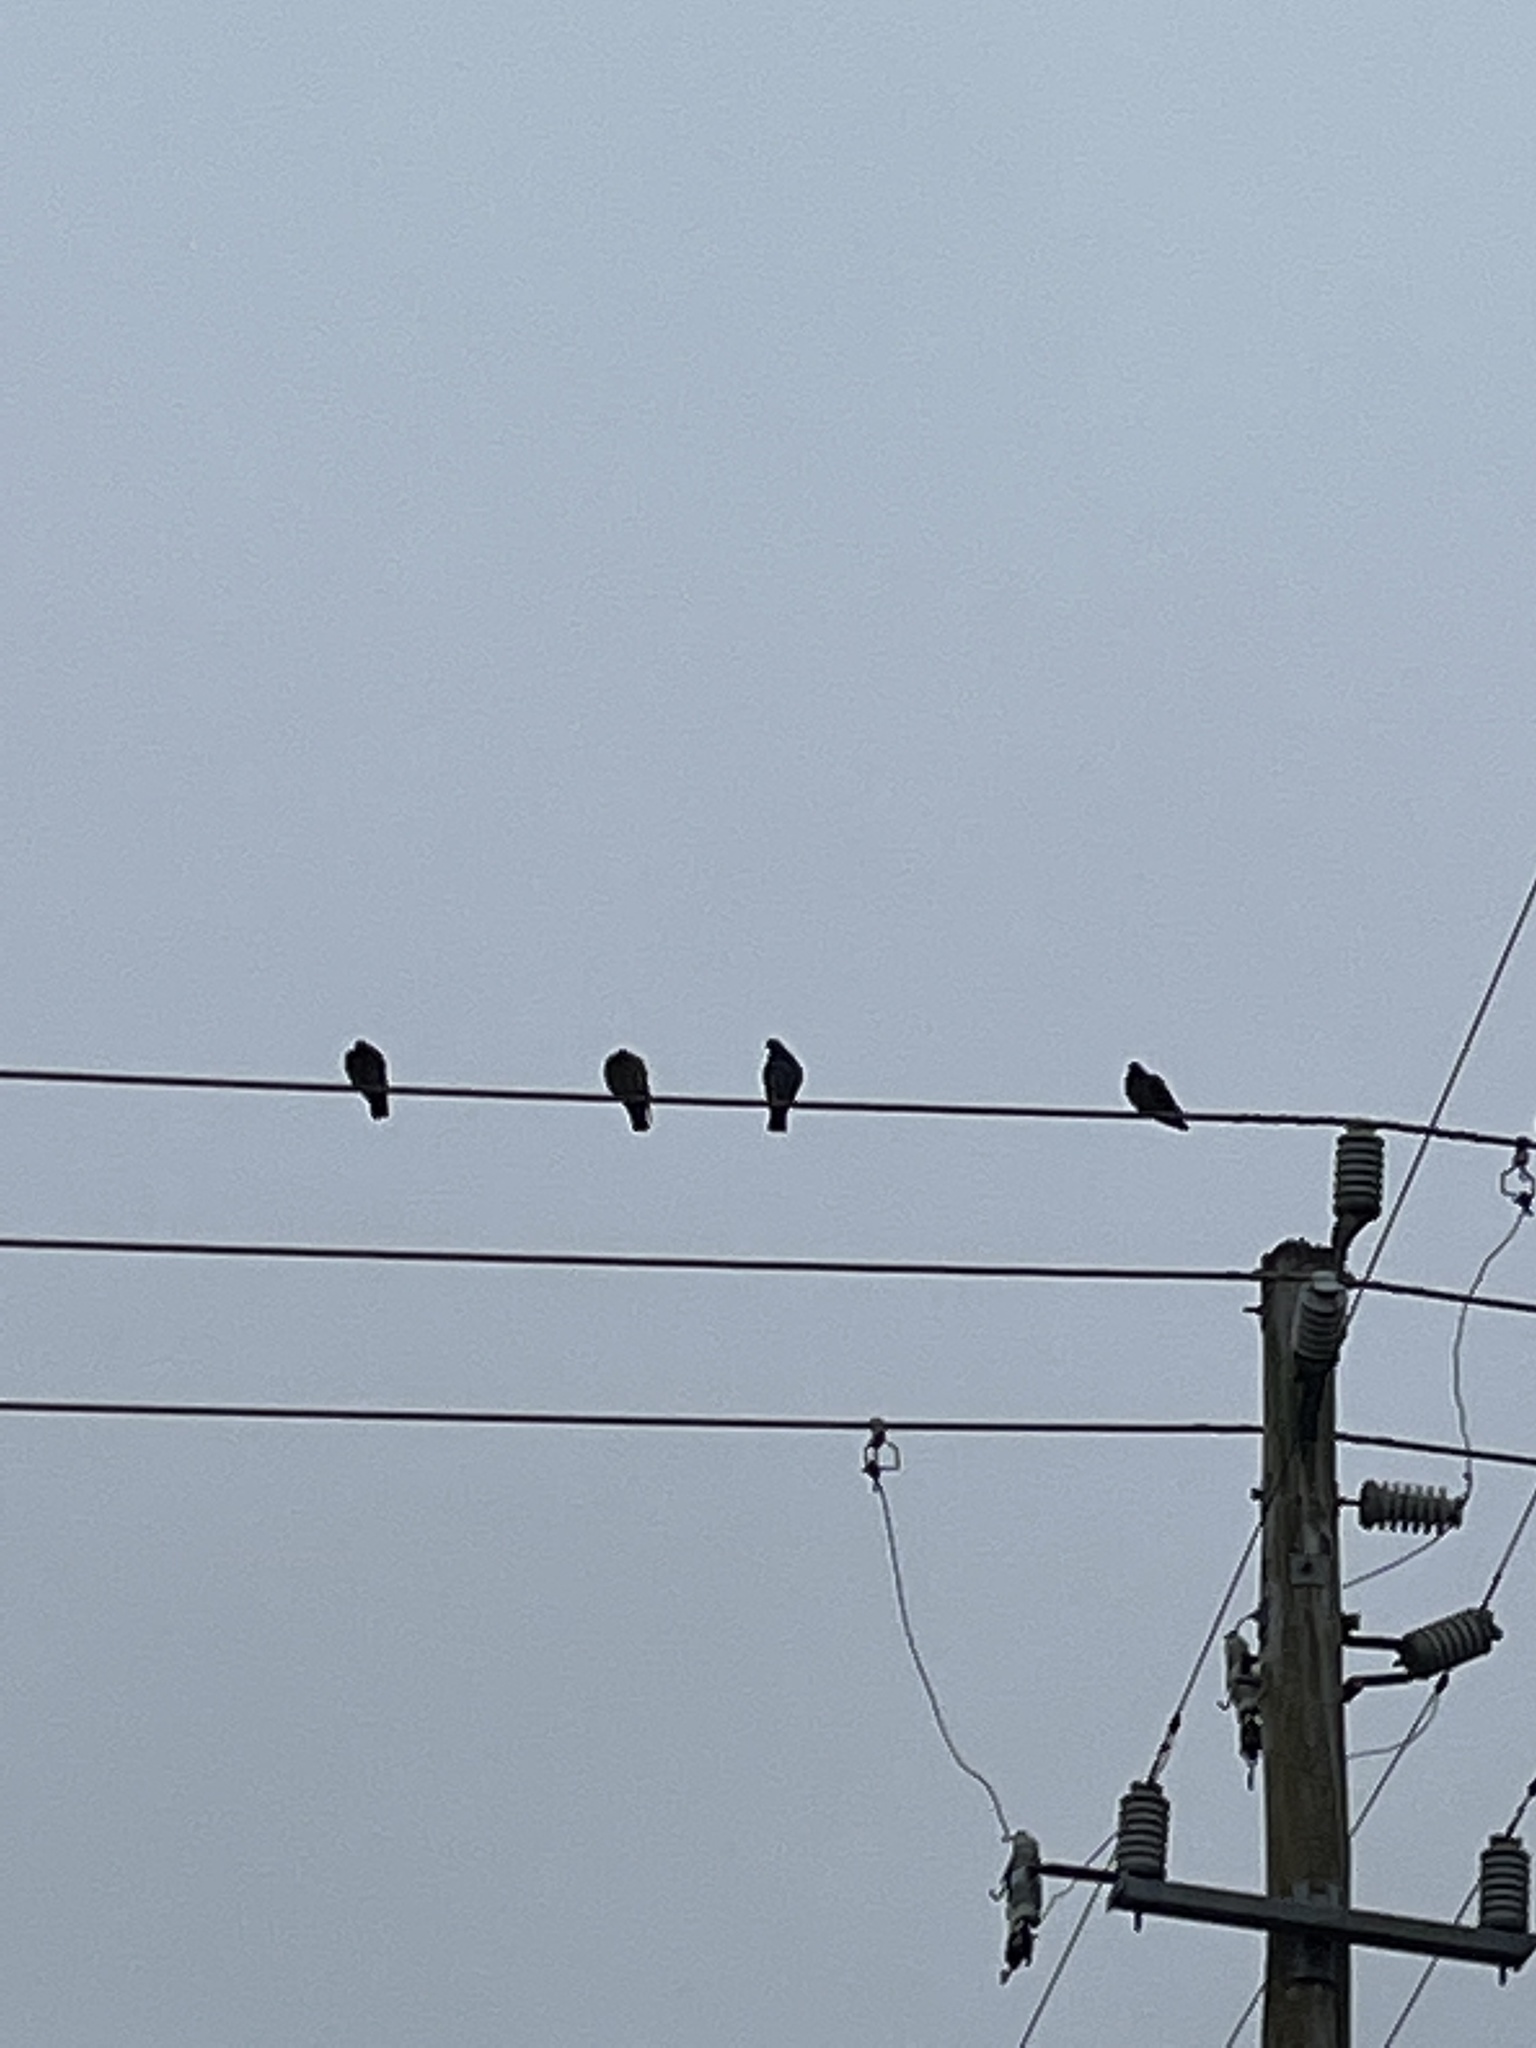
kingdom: Animalia
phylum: Chordata
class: Aves
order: Columbiformes
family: Columbidae
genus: Columba
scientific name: Columba livia
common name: Rock pigeon
